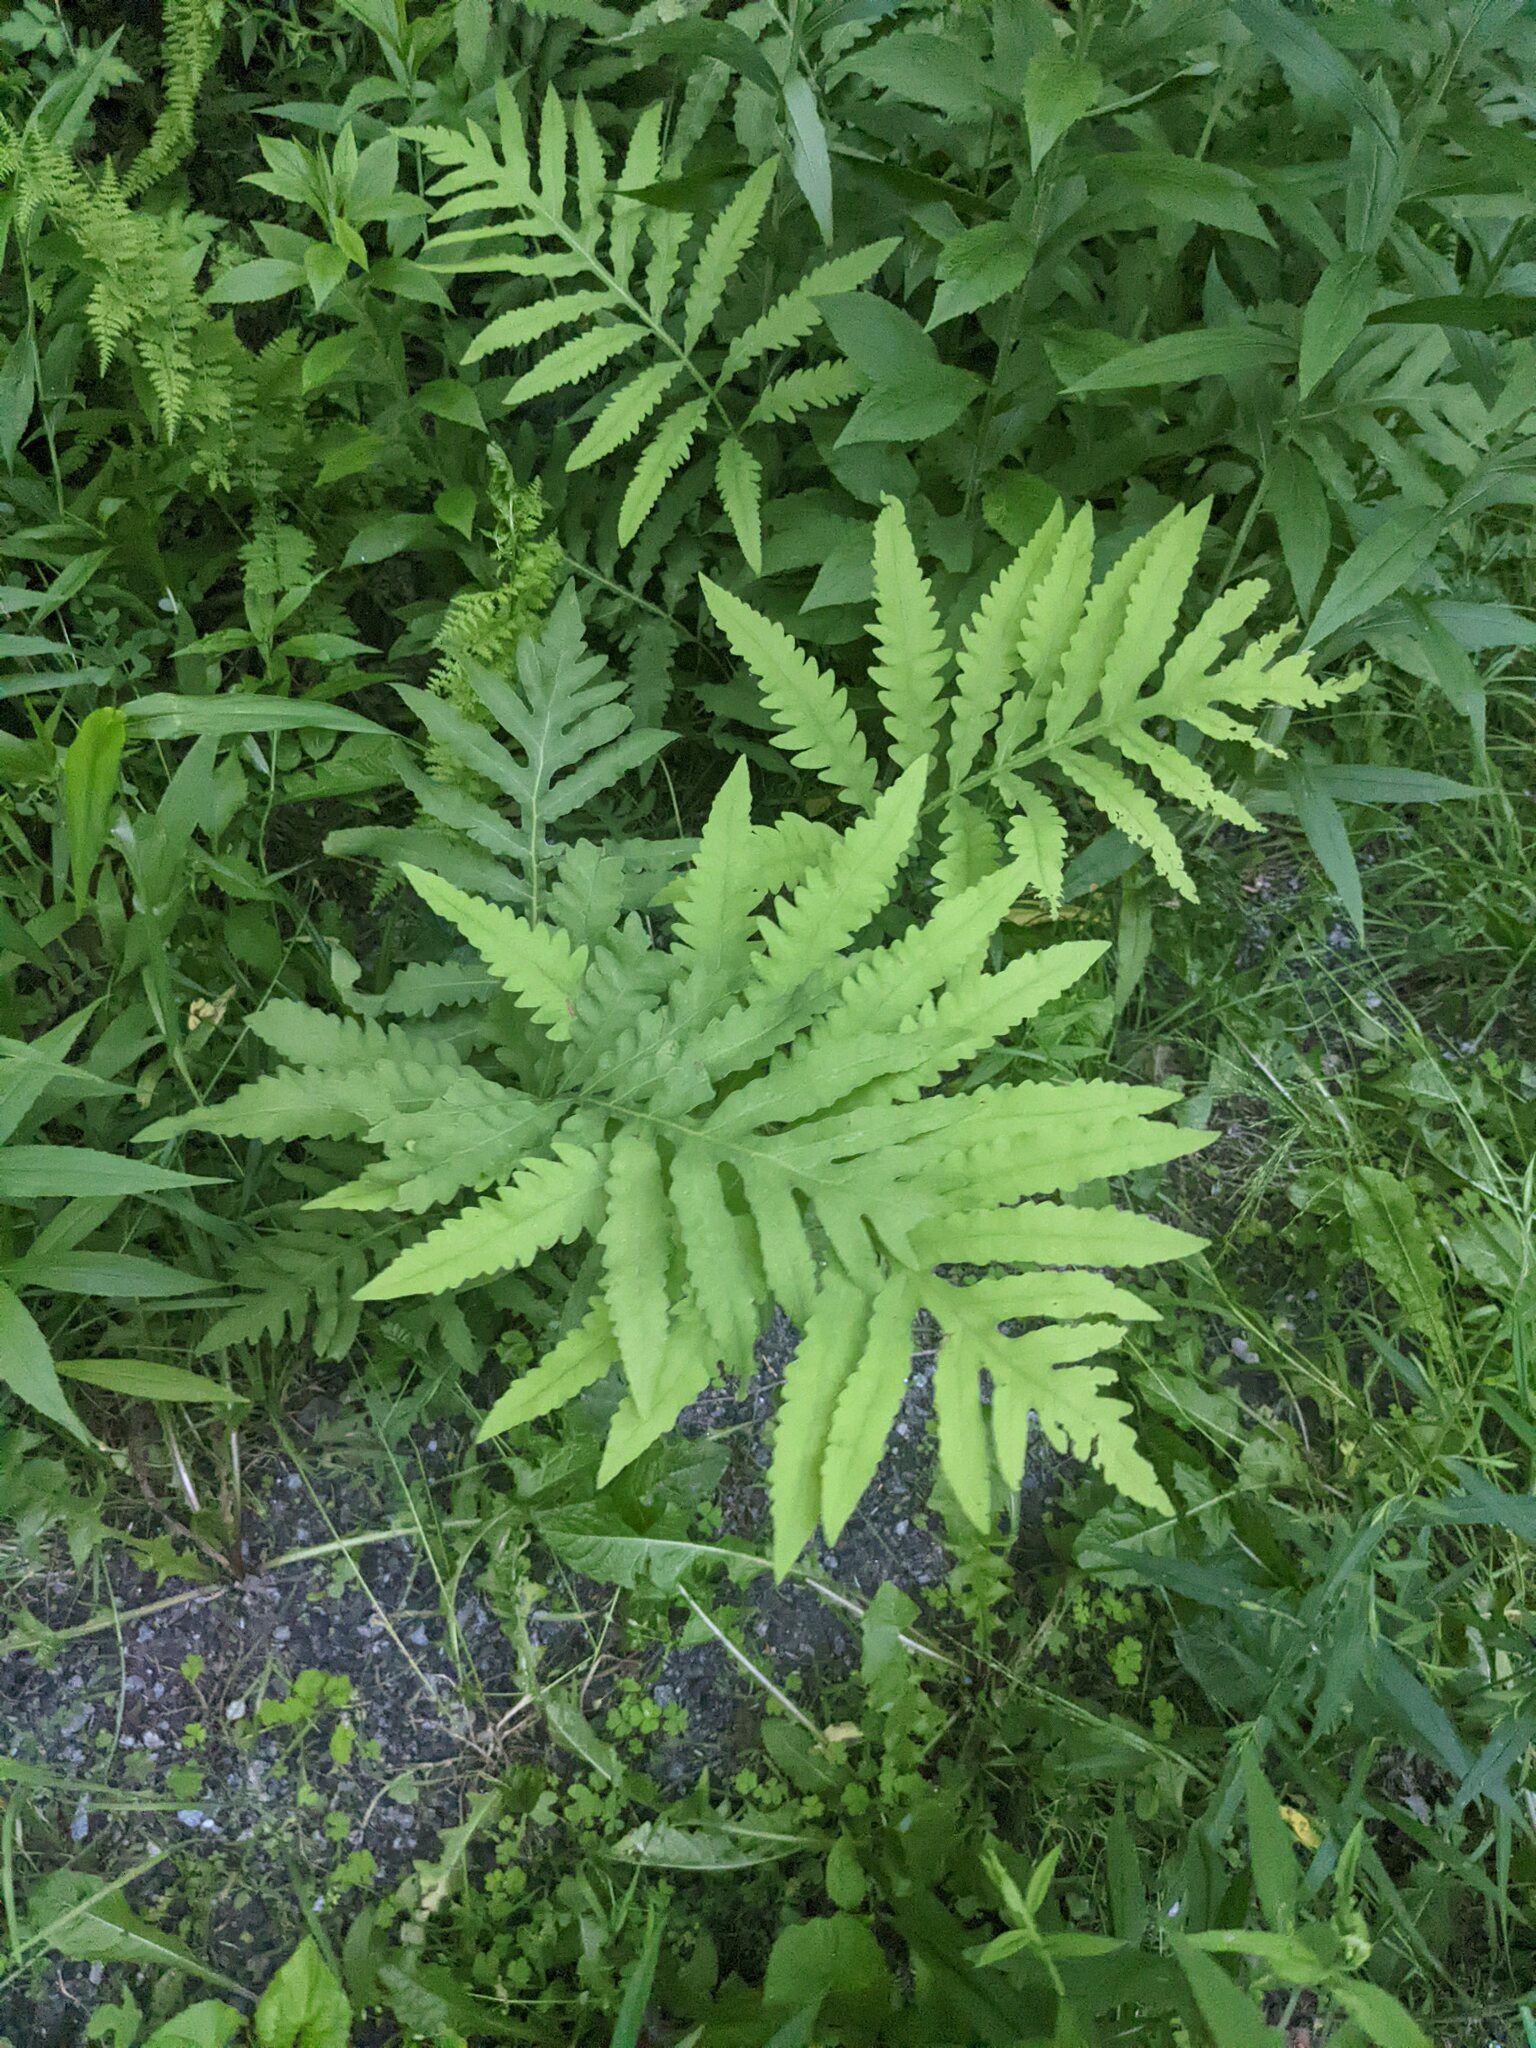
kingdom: Plantae
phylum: Tracheophyta
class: Polypodiopsida
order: Polypodiales
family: Onocleaceae
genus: Onoclea
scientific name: Onoclea sensibilis
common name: Sensitive fern
